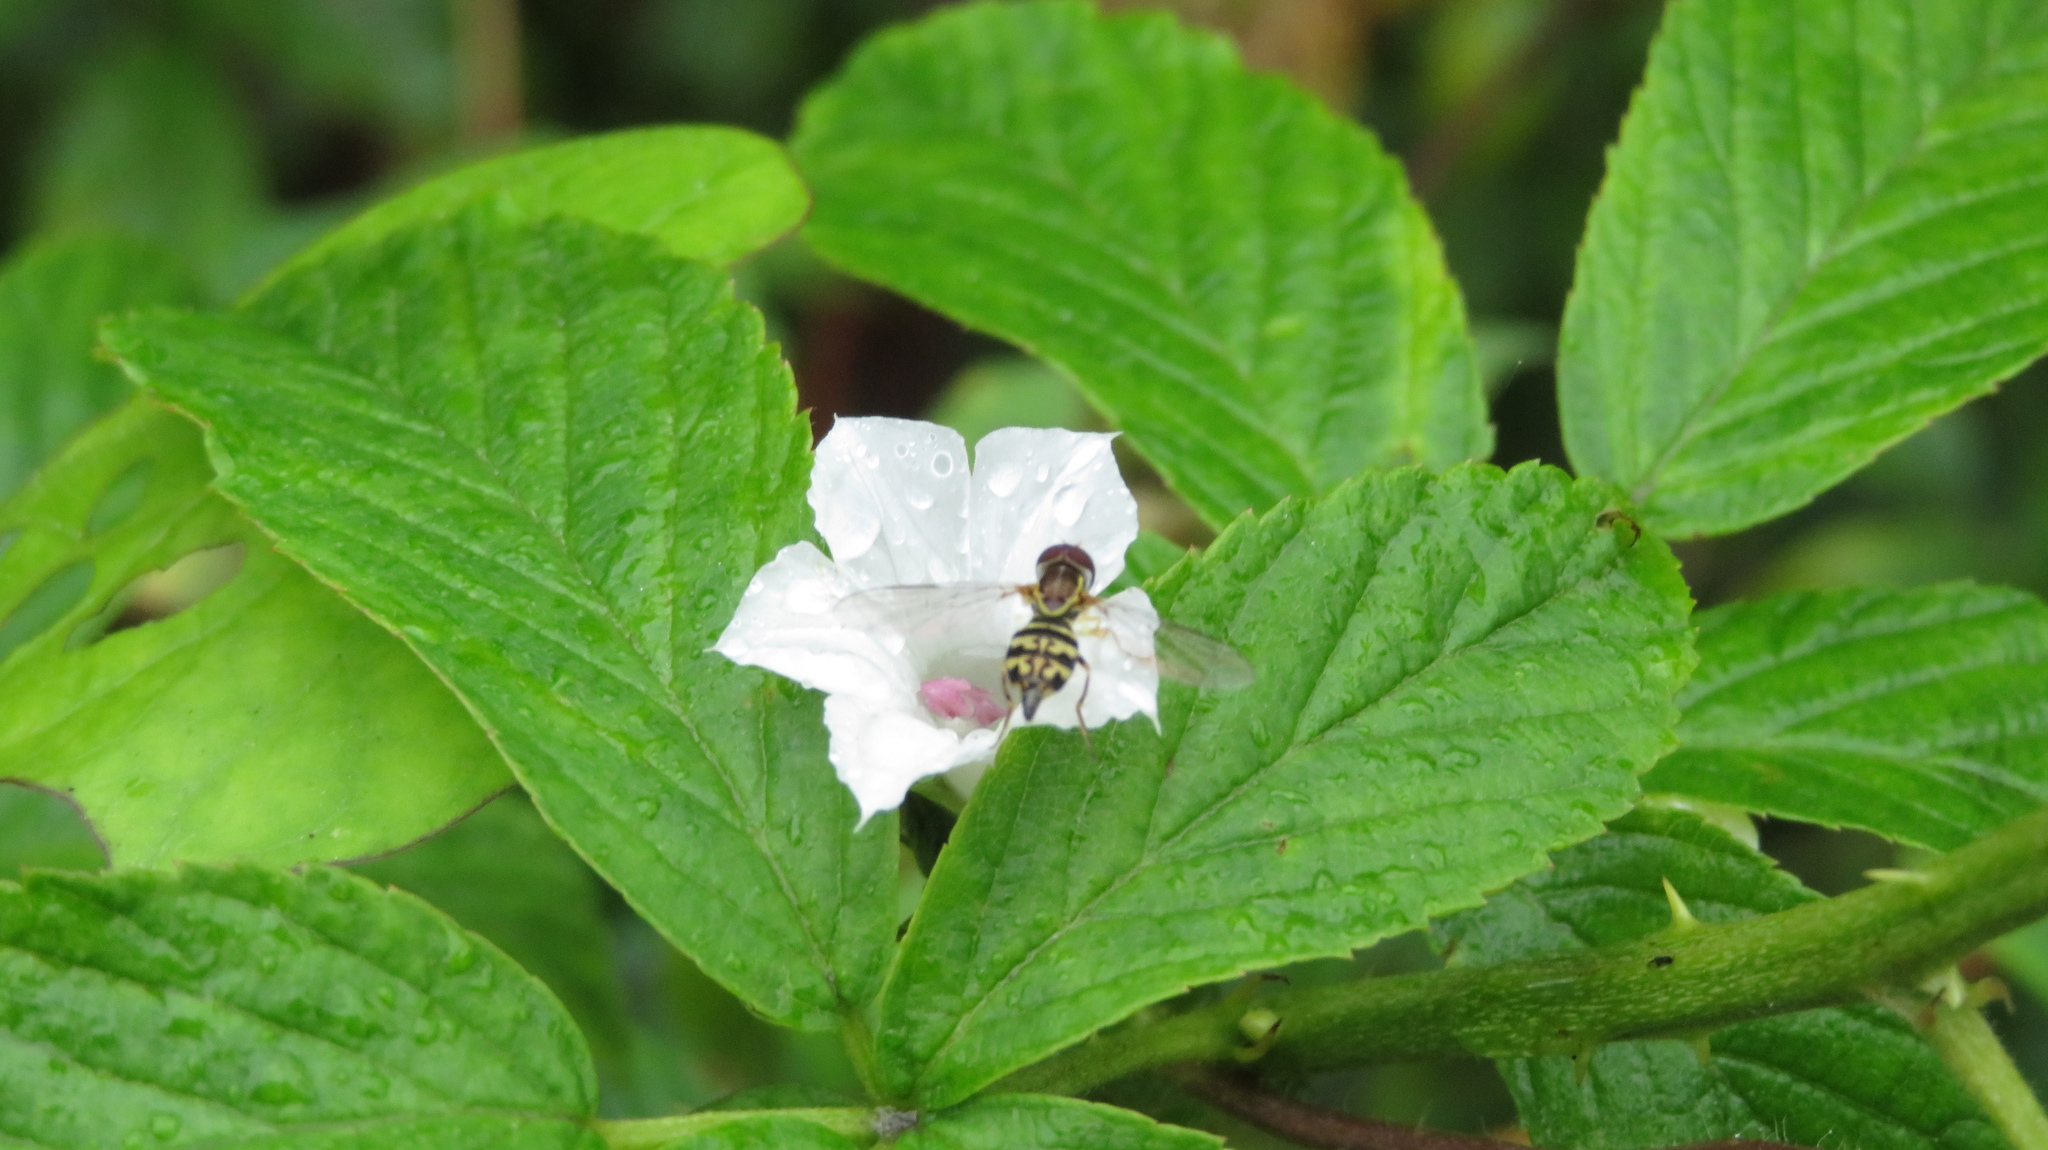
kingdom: Animalia
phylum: Arthropoda
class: Insecta
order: Diptera
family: Syrphidae
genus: Toxomerus
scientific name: Toxomerus geminatus
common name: Eastern calligrapher
